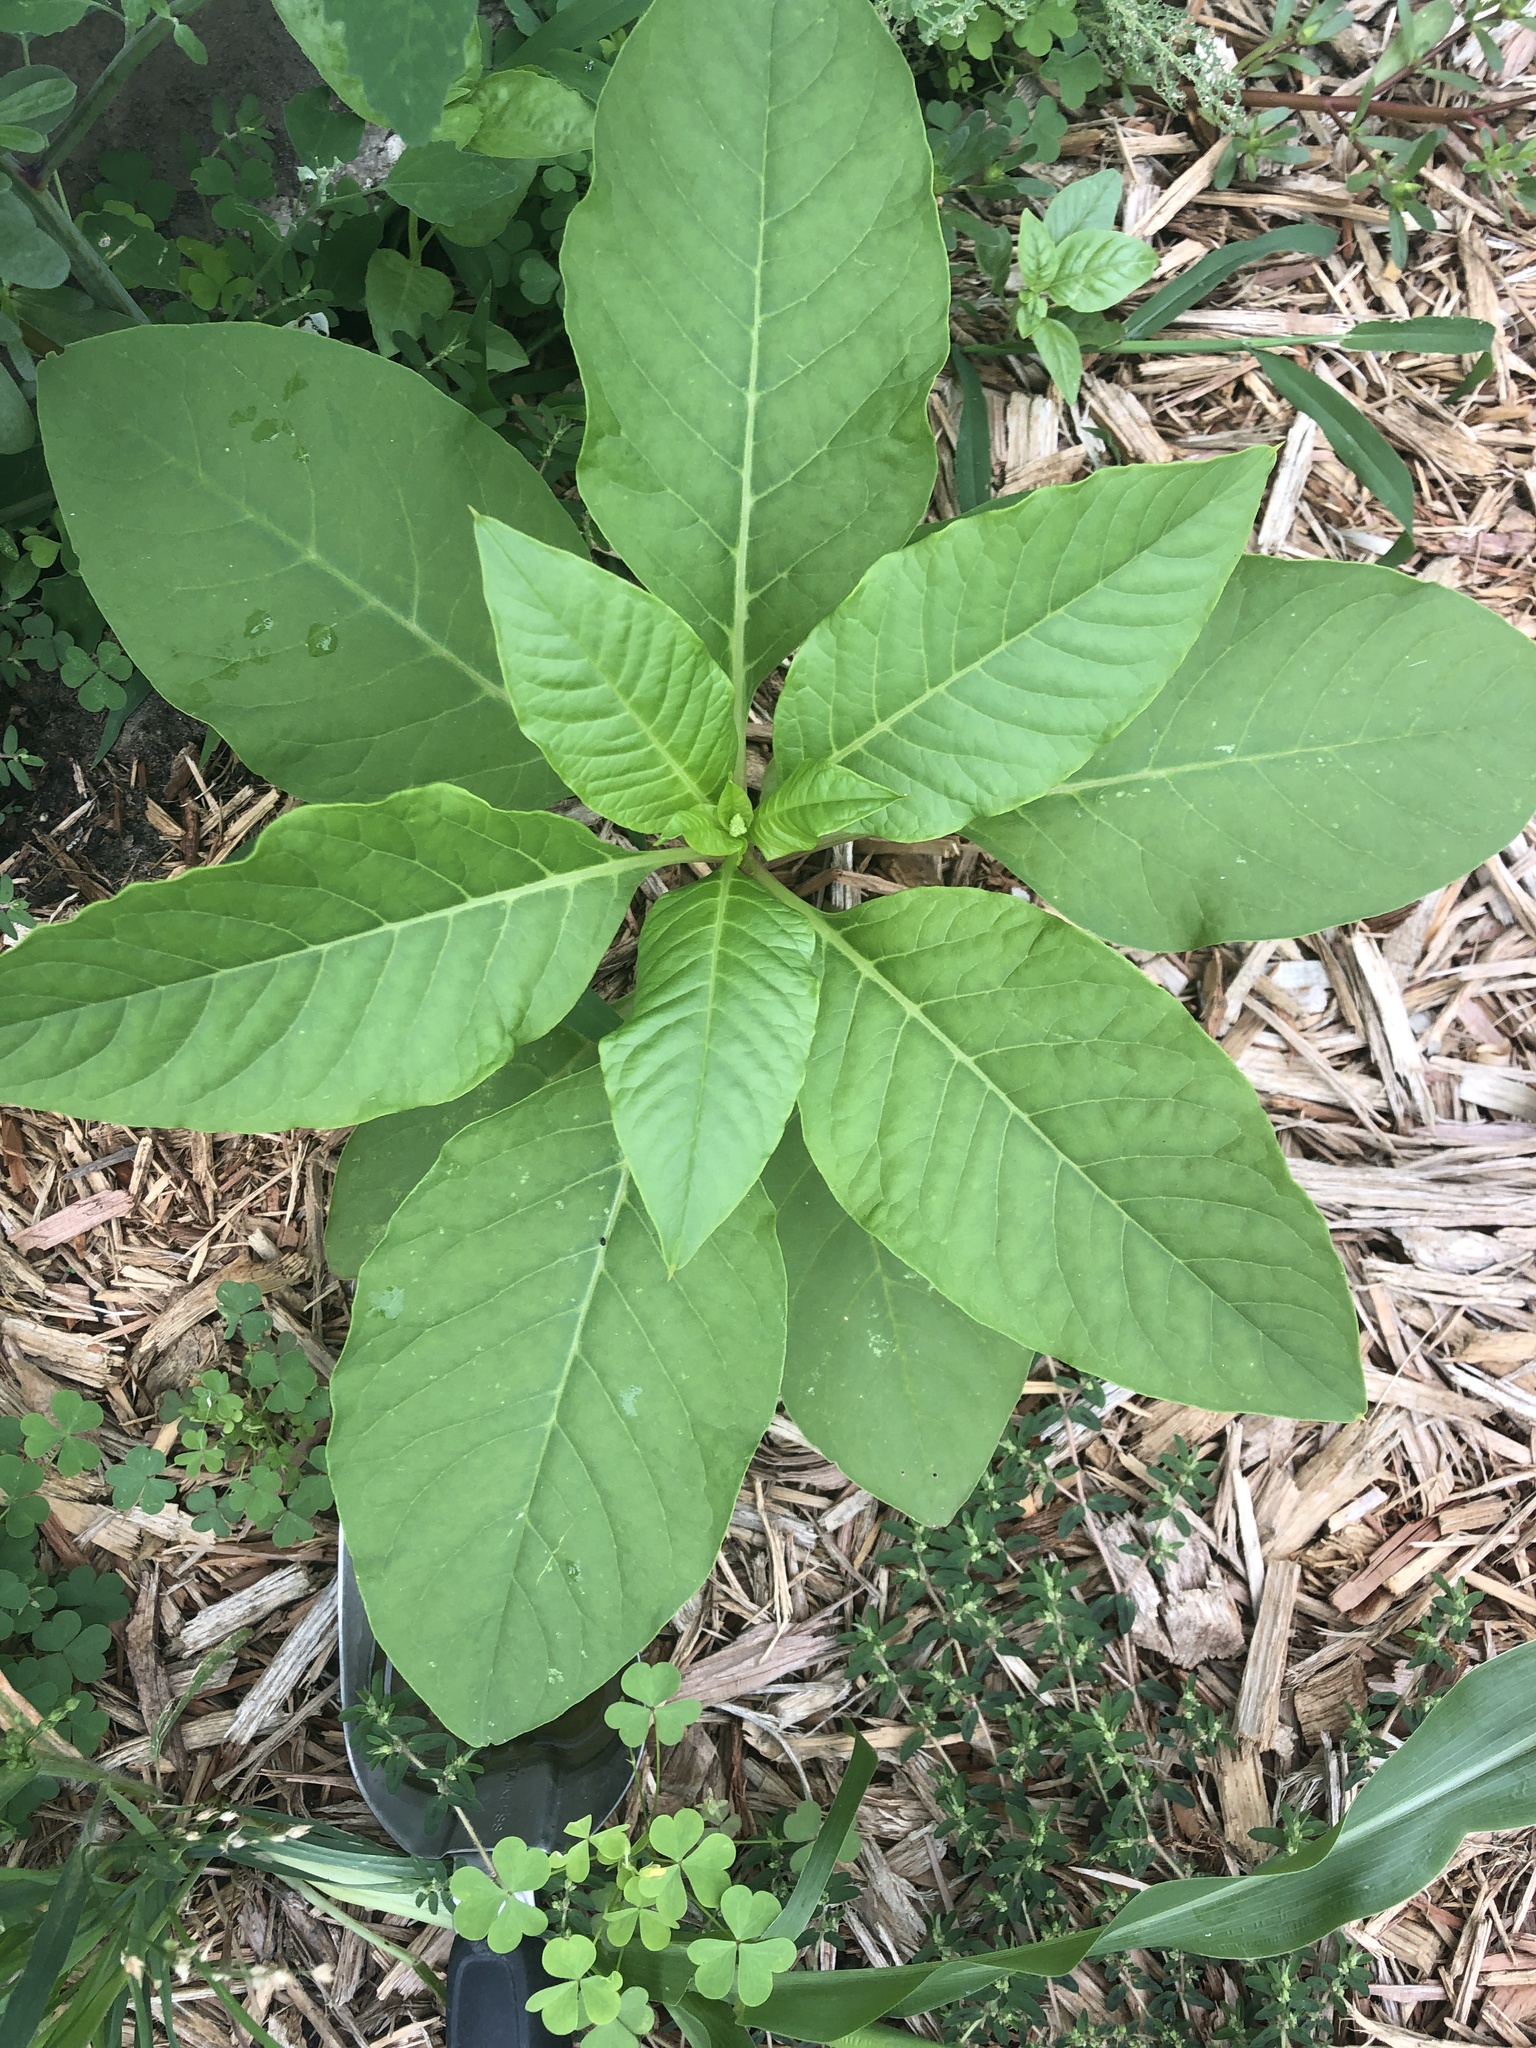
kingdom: Plantae
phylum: Tracheophyta
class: Magnoliopsida
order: Caryophyllales
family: Phytolaccaceae
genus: Phytolacca
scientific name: Phytolacca americana
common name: American pokeweed
